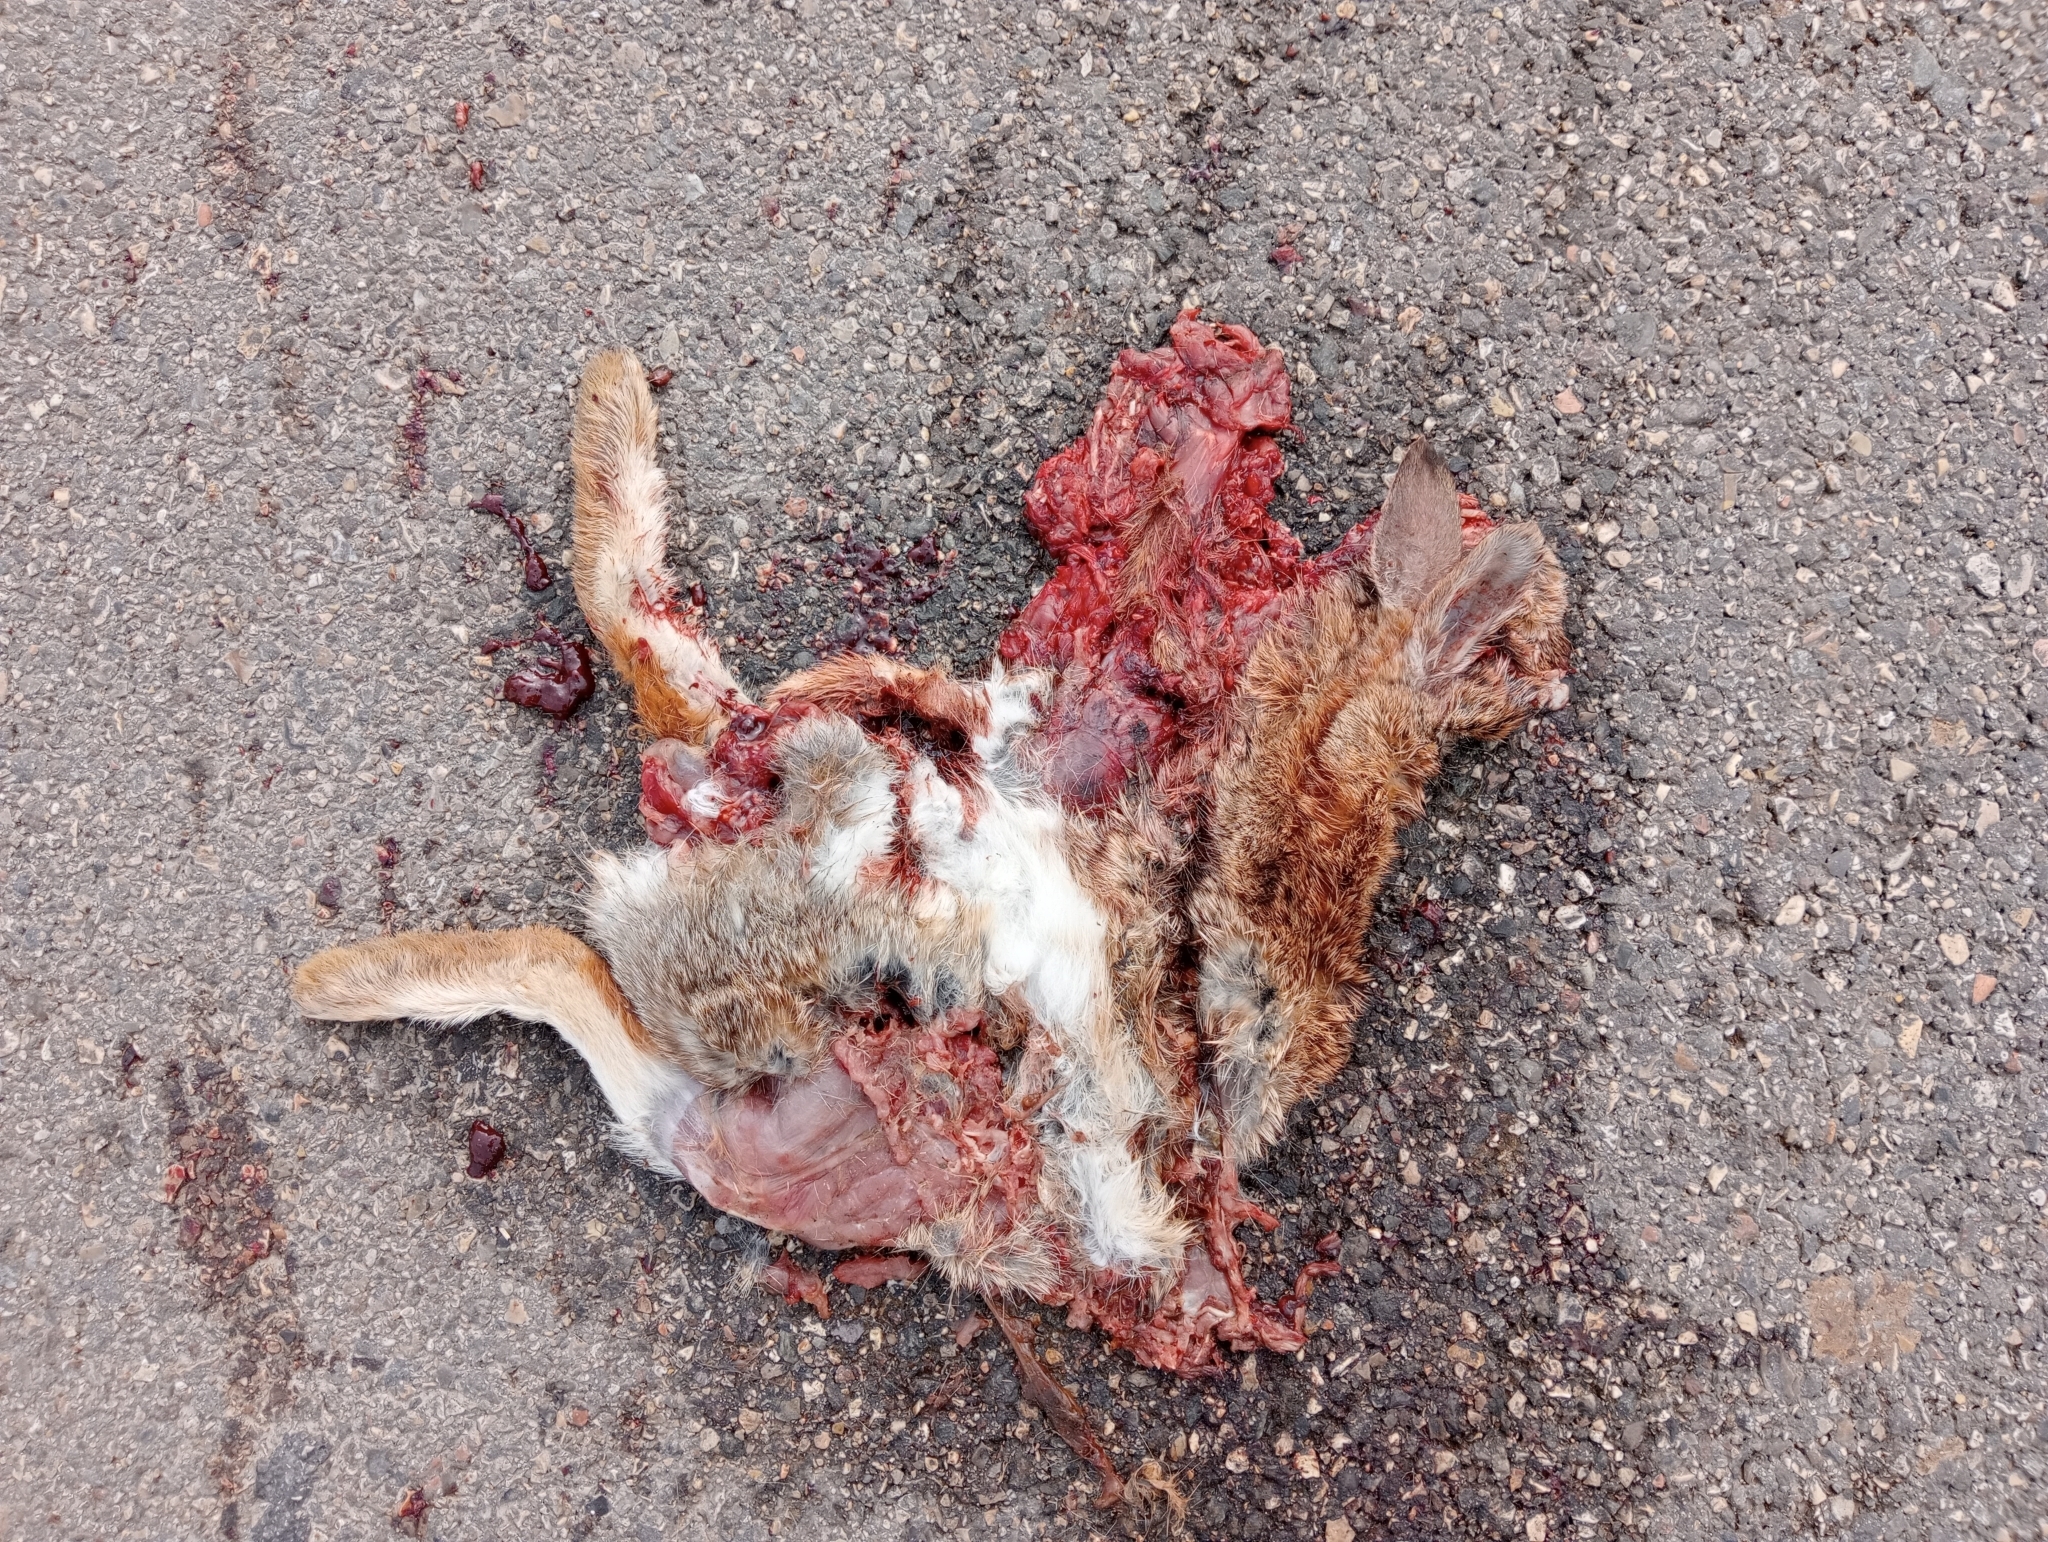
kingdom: Animalia
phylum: Chordata
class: Mammalia
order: Lagomorpha
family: Leporidae
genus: Sylvilagus
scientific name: Sylvilagus floridanus
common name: Eastern cottontail
